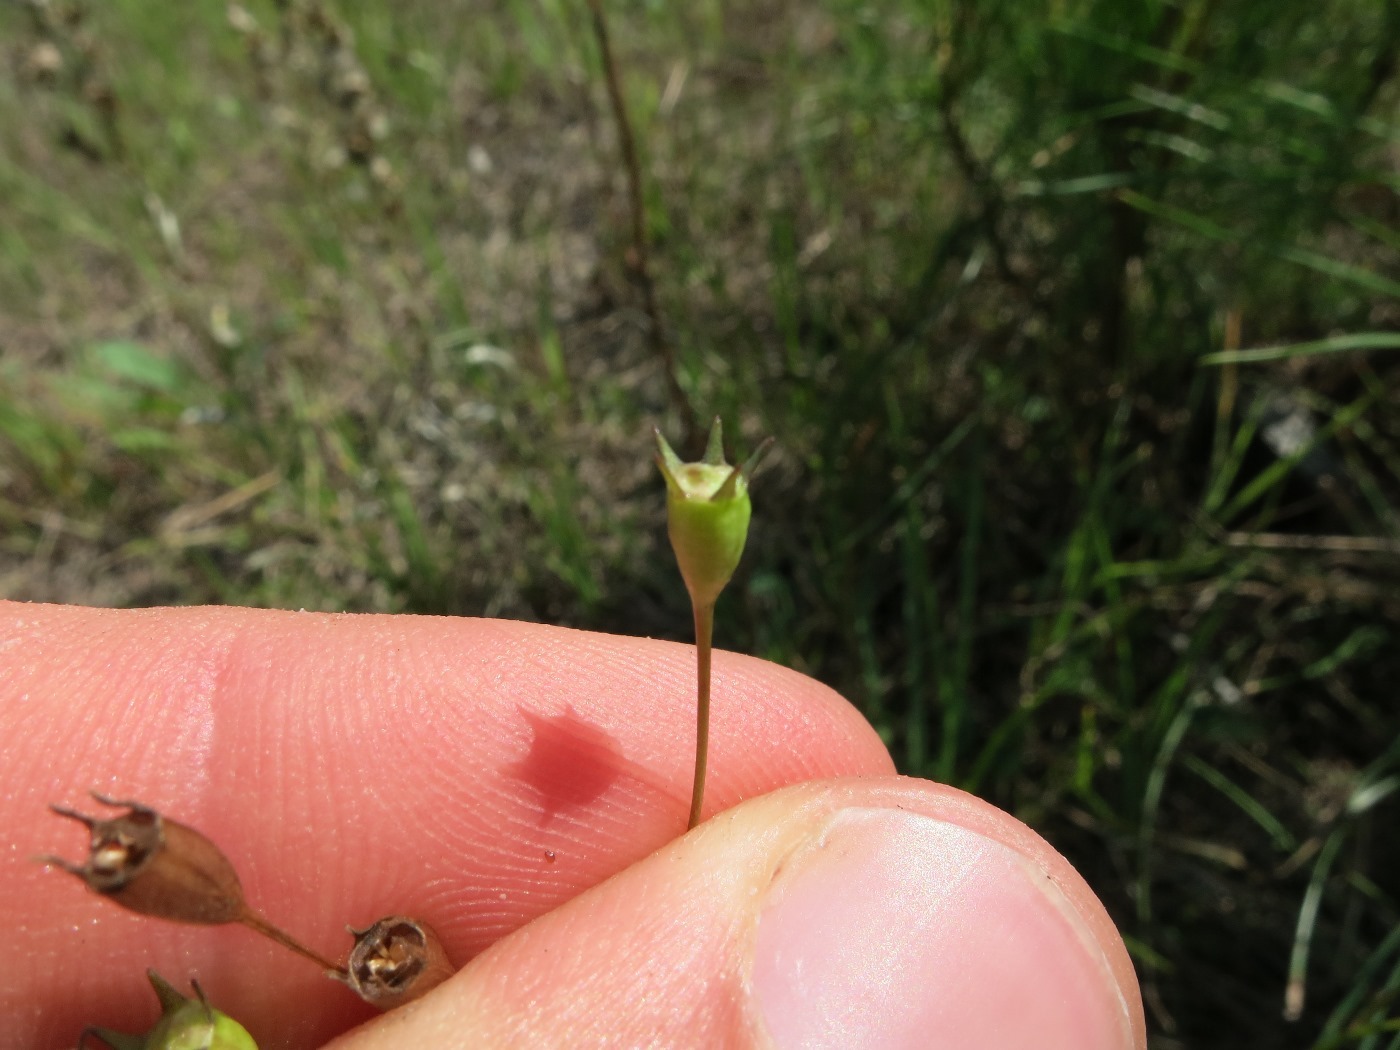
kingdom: Plantae
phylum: Tracheophyta
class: Magnoliopsida
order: Asterales
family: Campanulaceae
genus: Wahlenbergia
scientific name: Wahlenbergia marginata
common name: Southern rockbell
